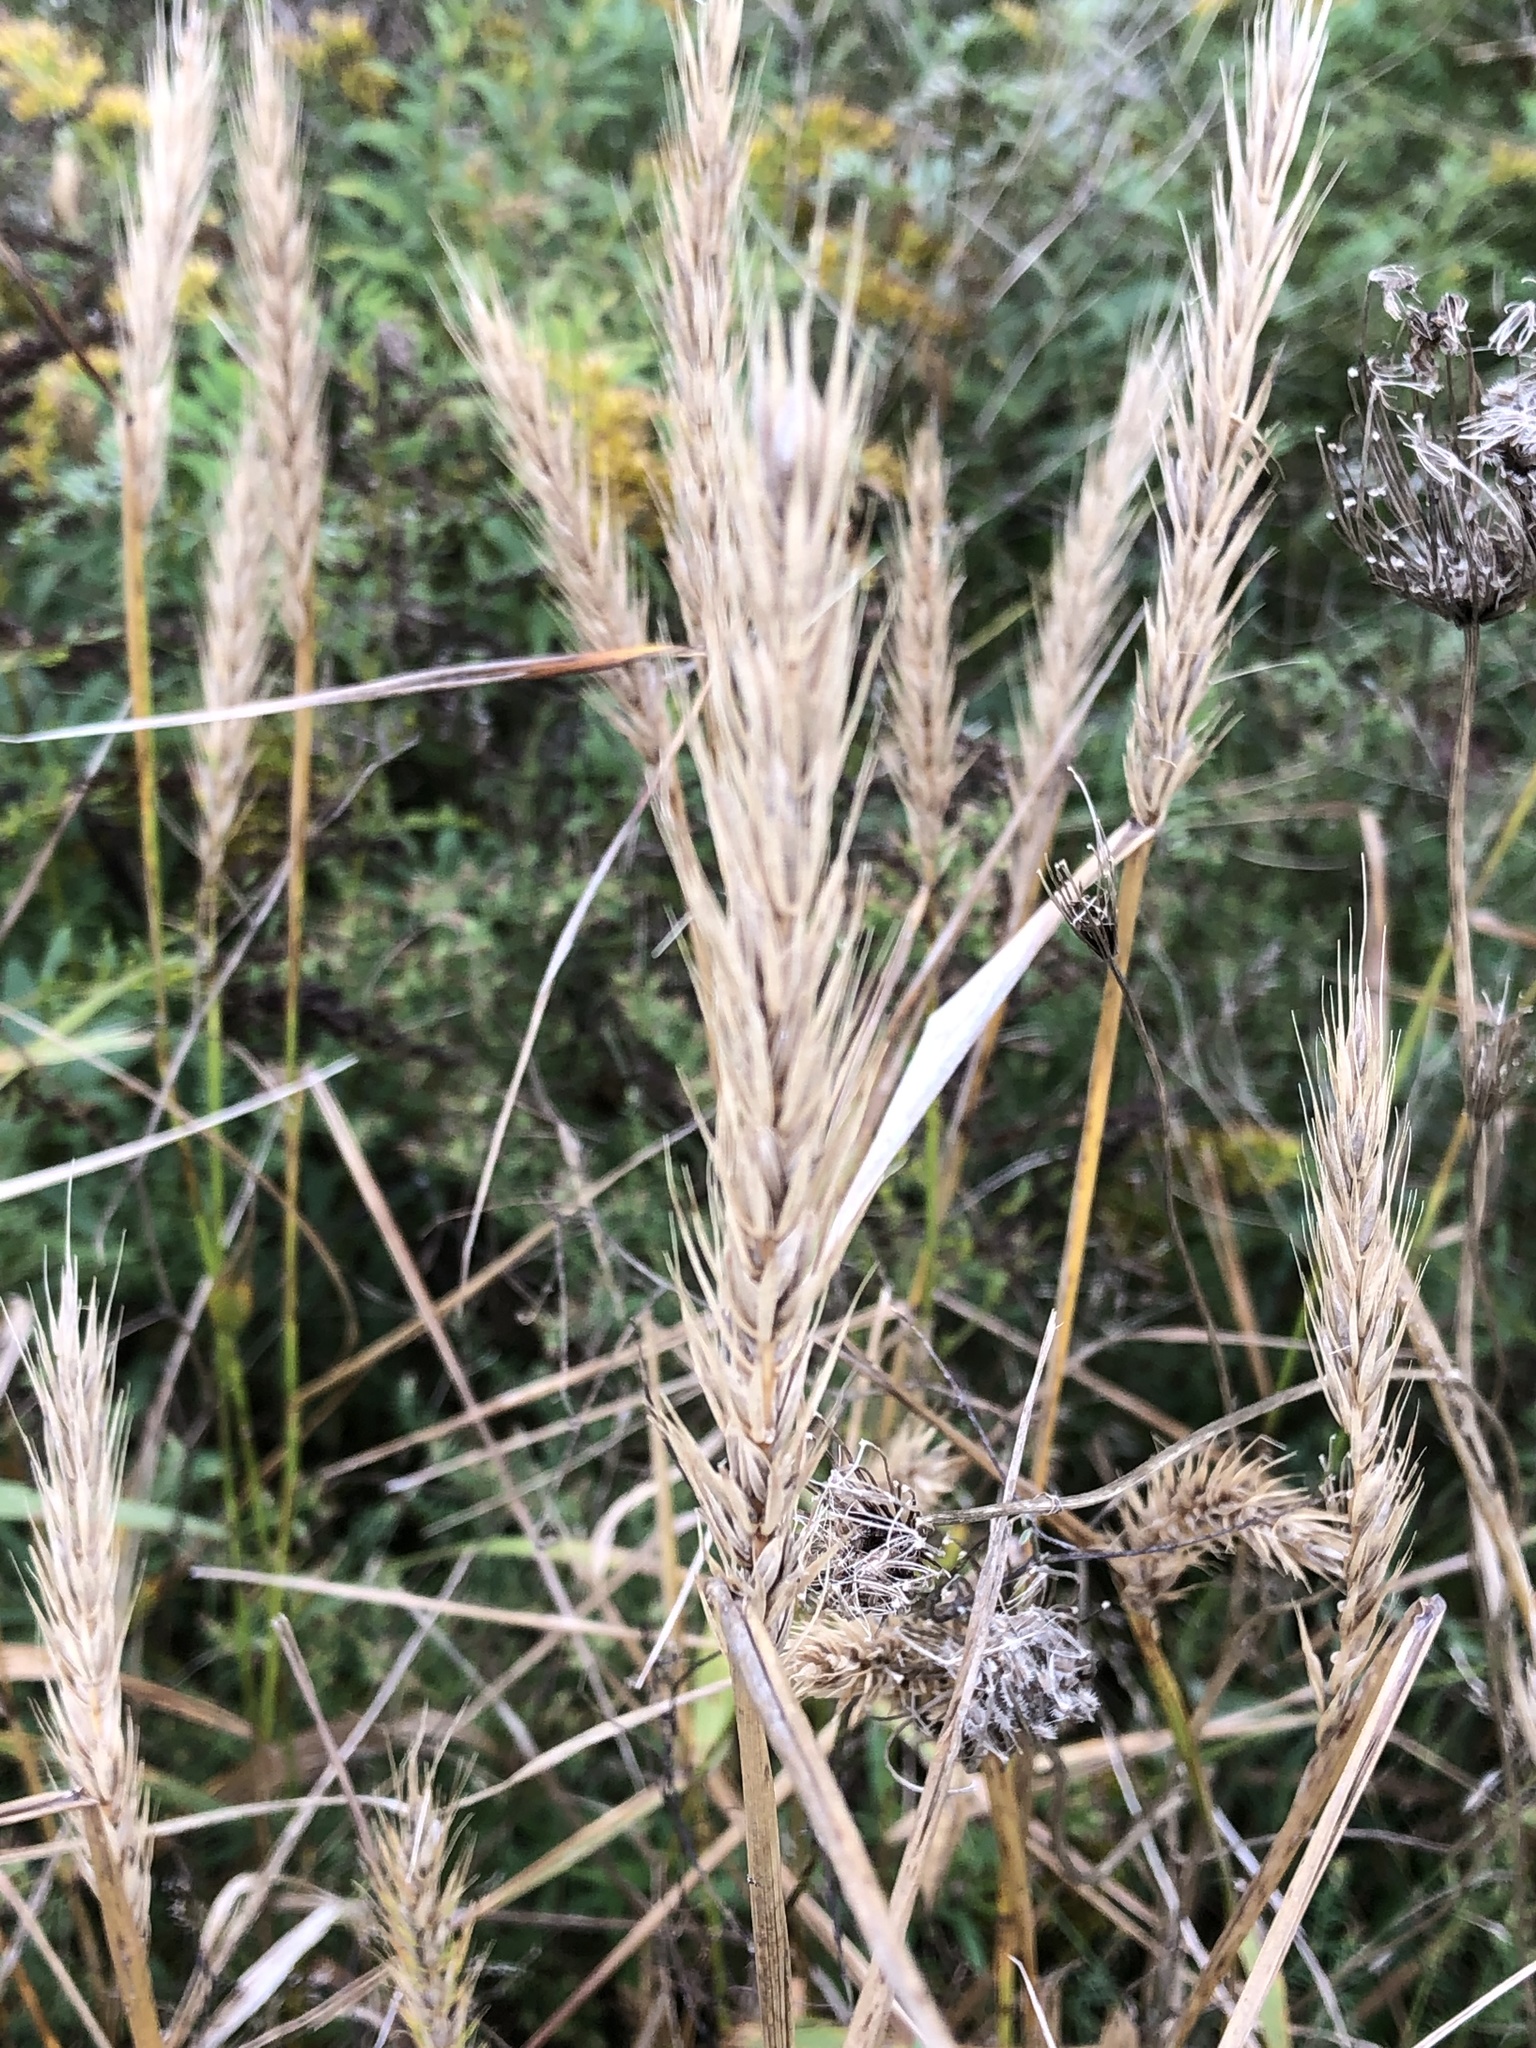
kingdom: Plantae
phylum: Tracheophyta
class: Liliopsida
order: Poales
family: Poaceae
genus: Elymus
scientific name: Elymus virginicus
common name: Common eastern wildrye
